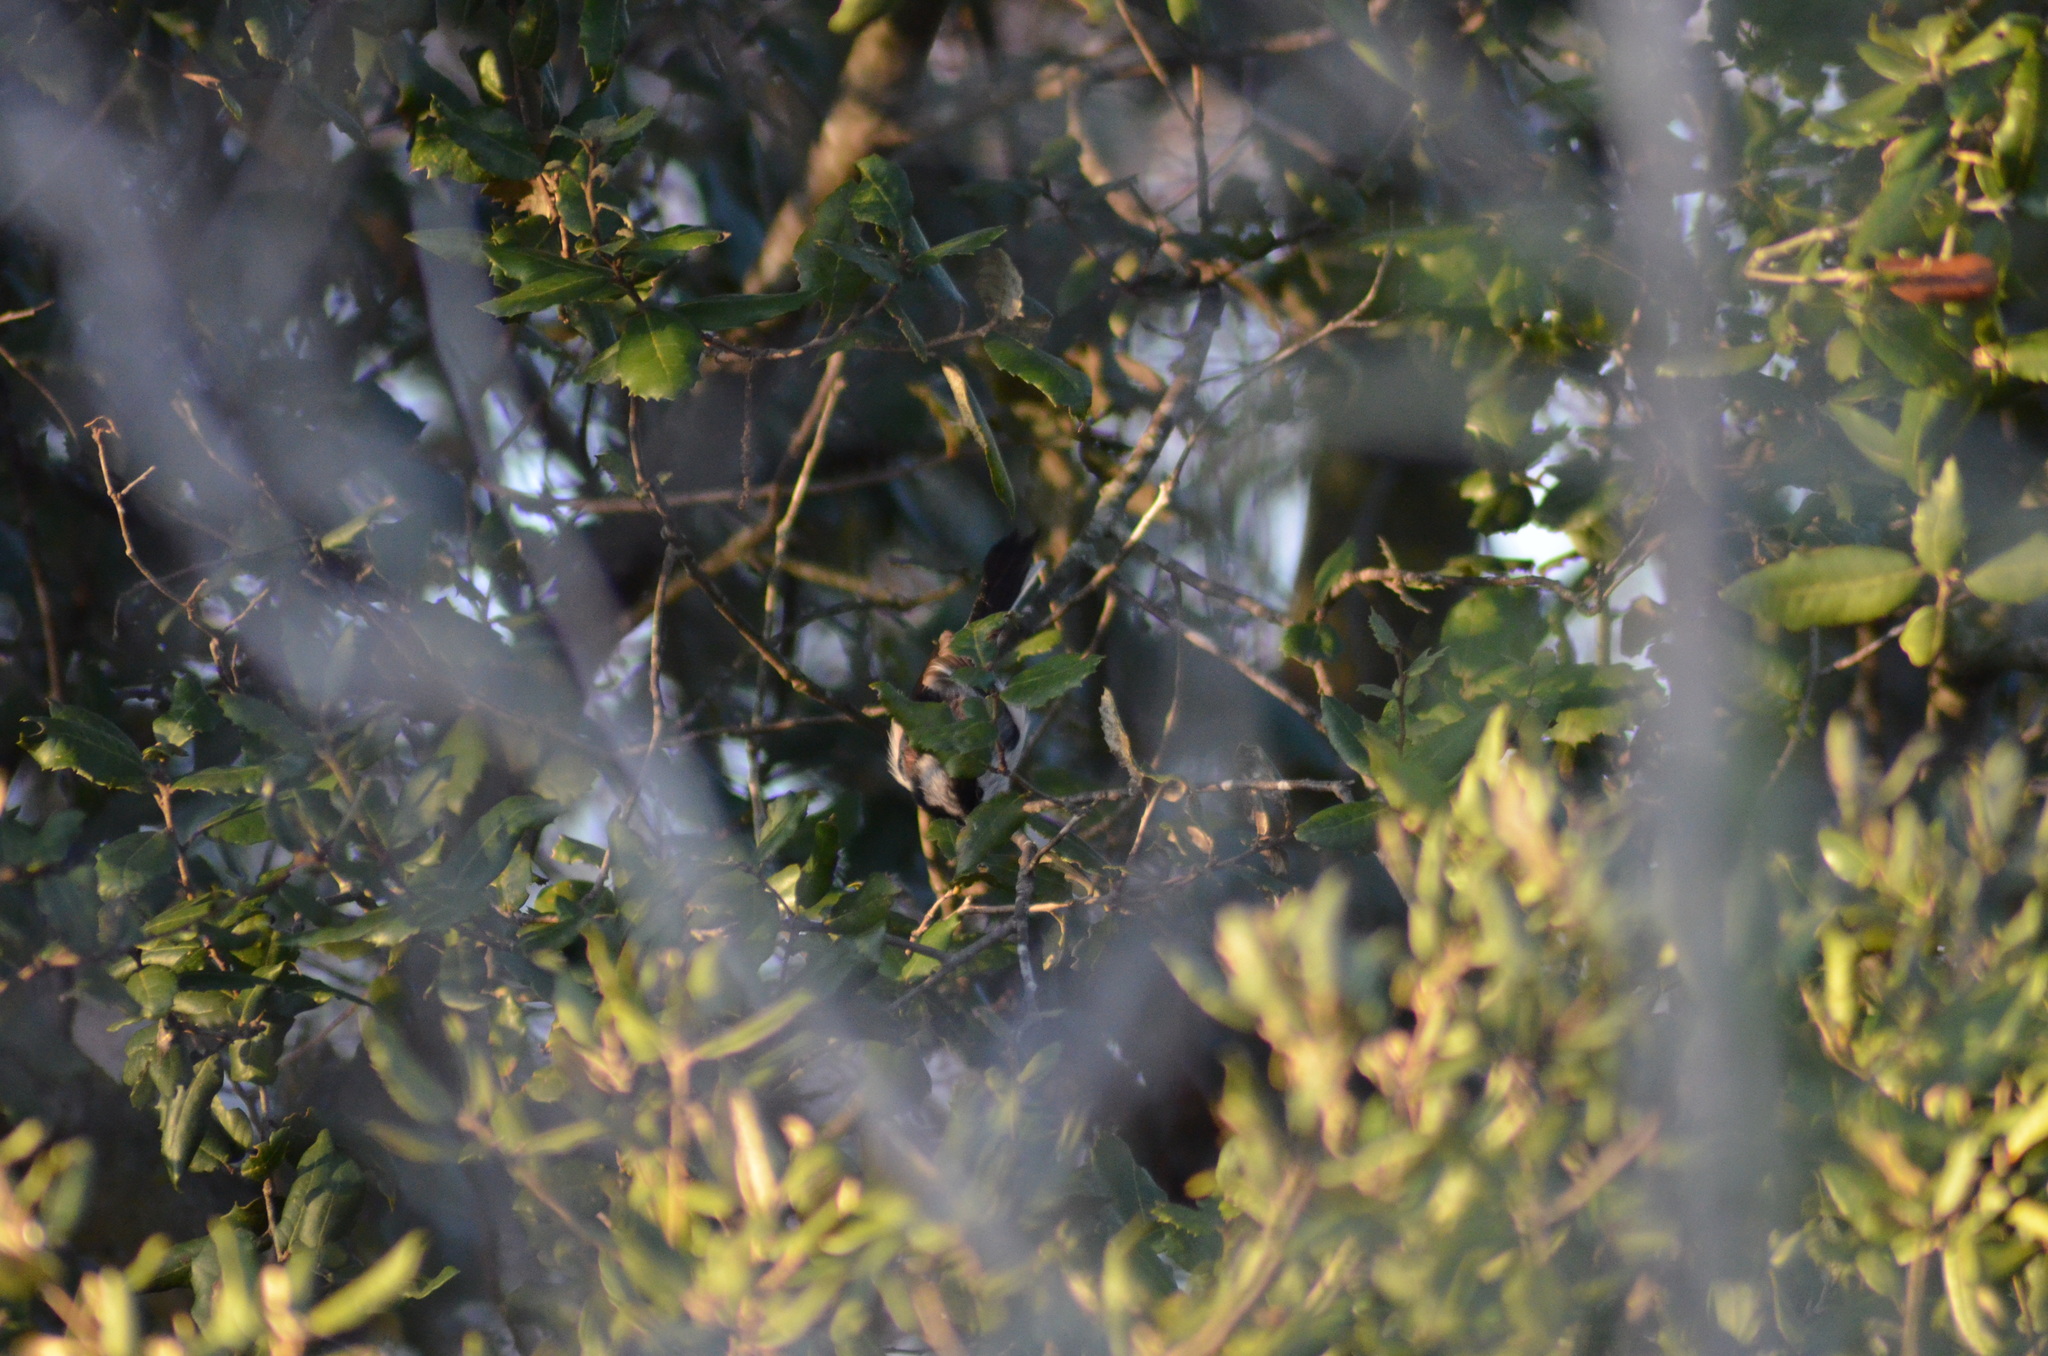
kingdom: Animalia
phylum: Chordata
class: Aves
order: Passeriformes
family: Aegithalidae
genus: Aegithalos
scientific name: Aegithalos caudatus
